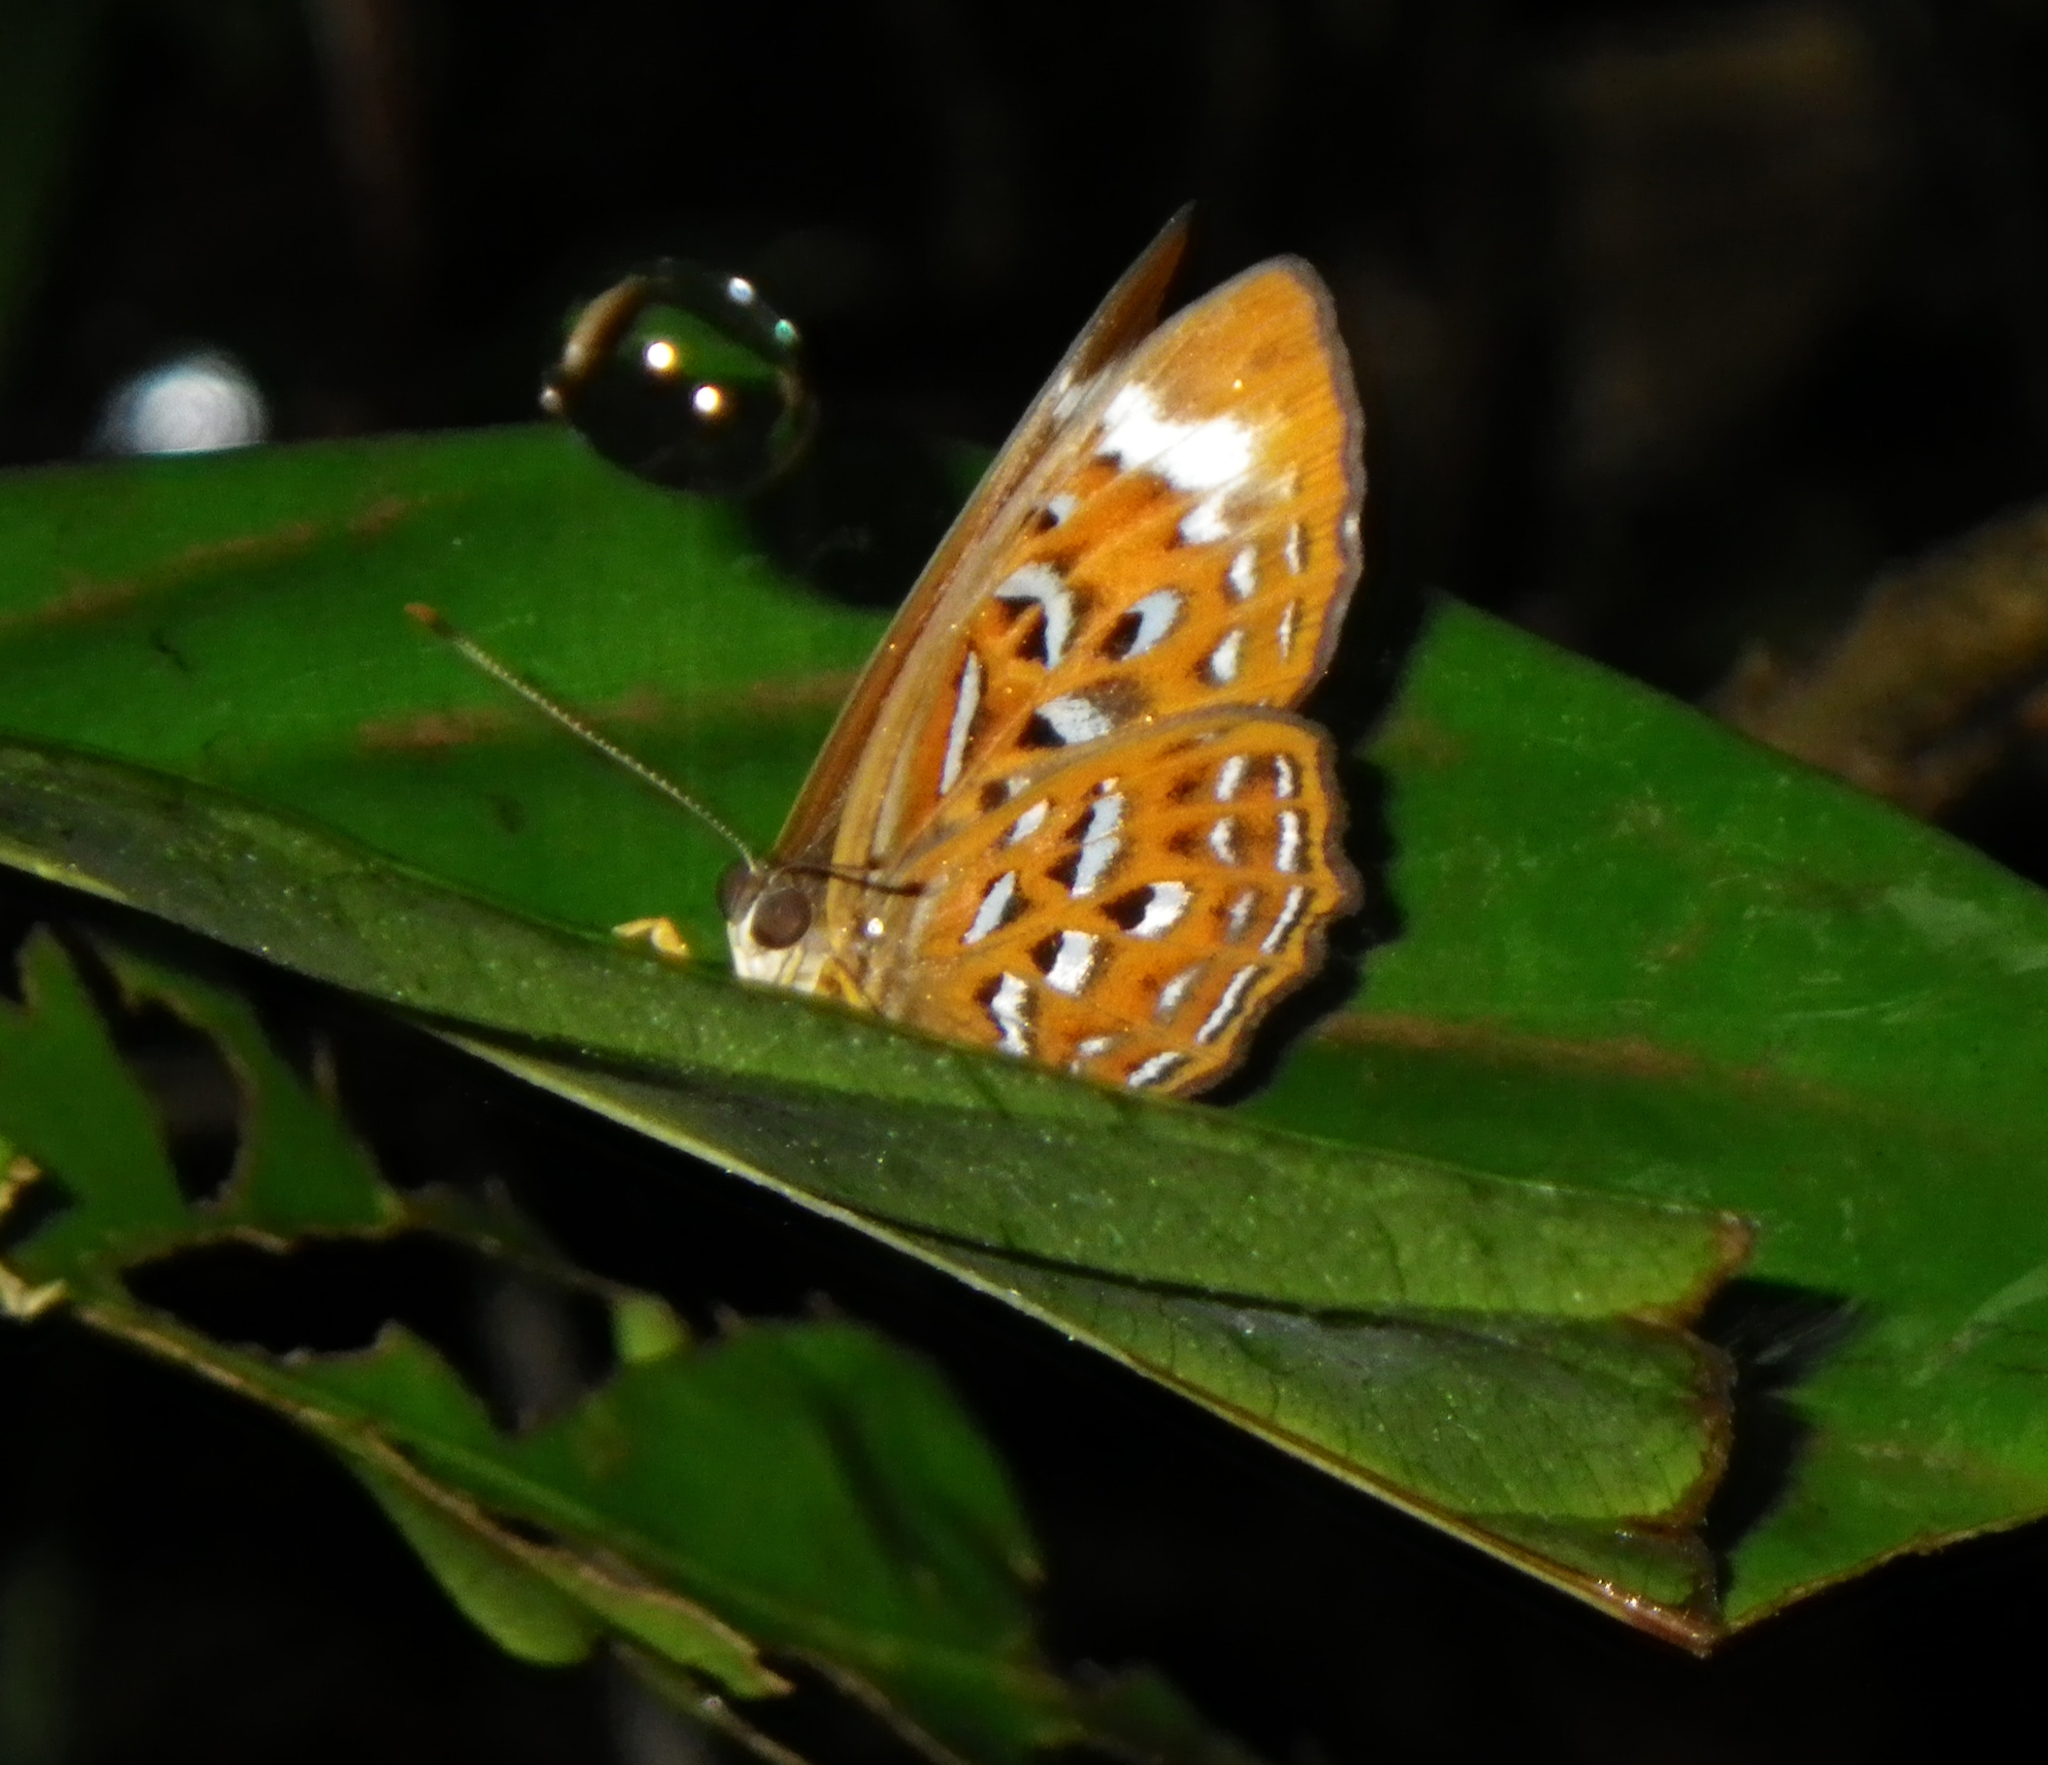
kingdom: Animalia
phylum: Arthropoda
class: Insecta
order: Lepidoptera
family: Erebidae
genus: Dysschema
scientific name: Dysschema
